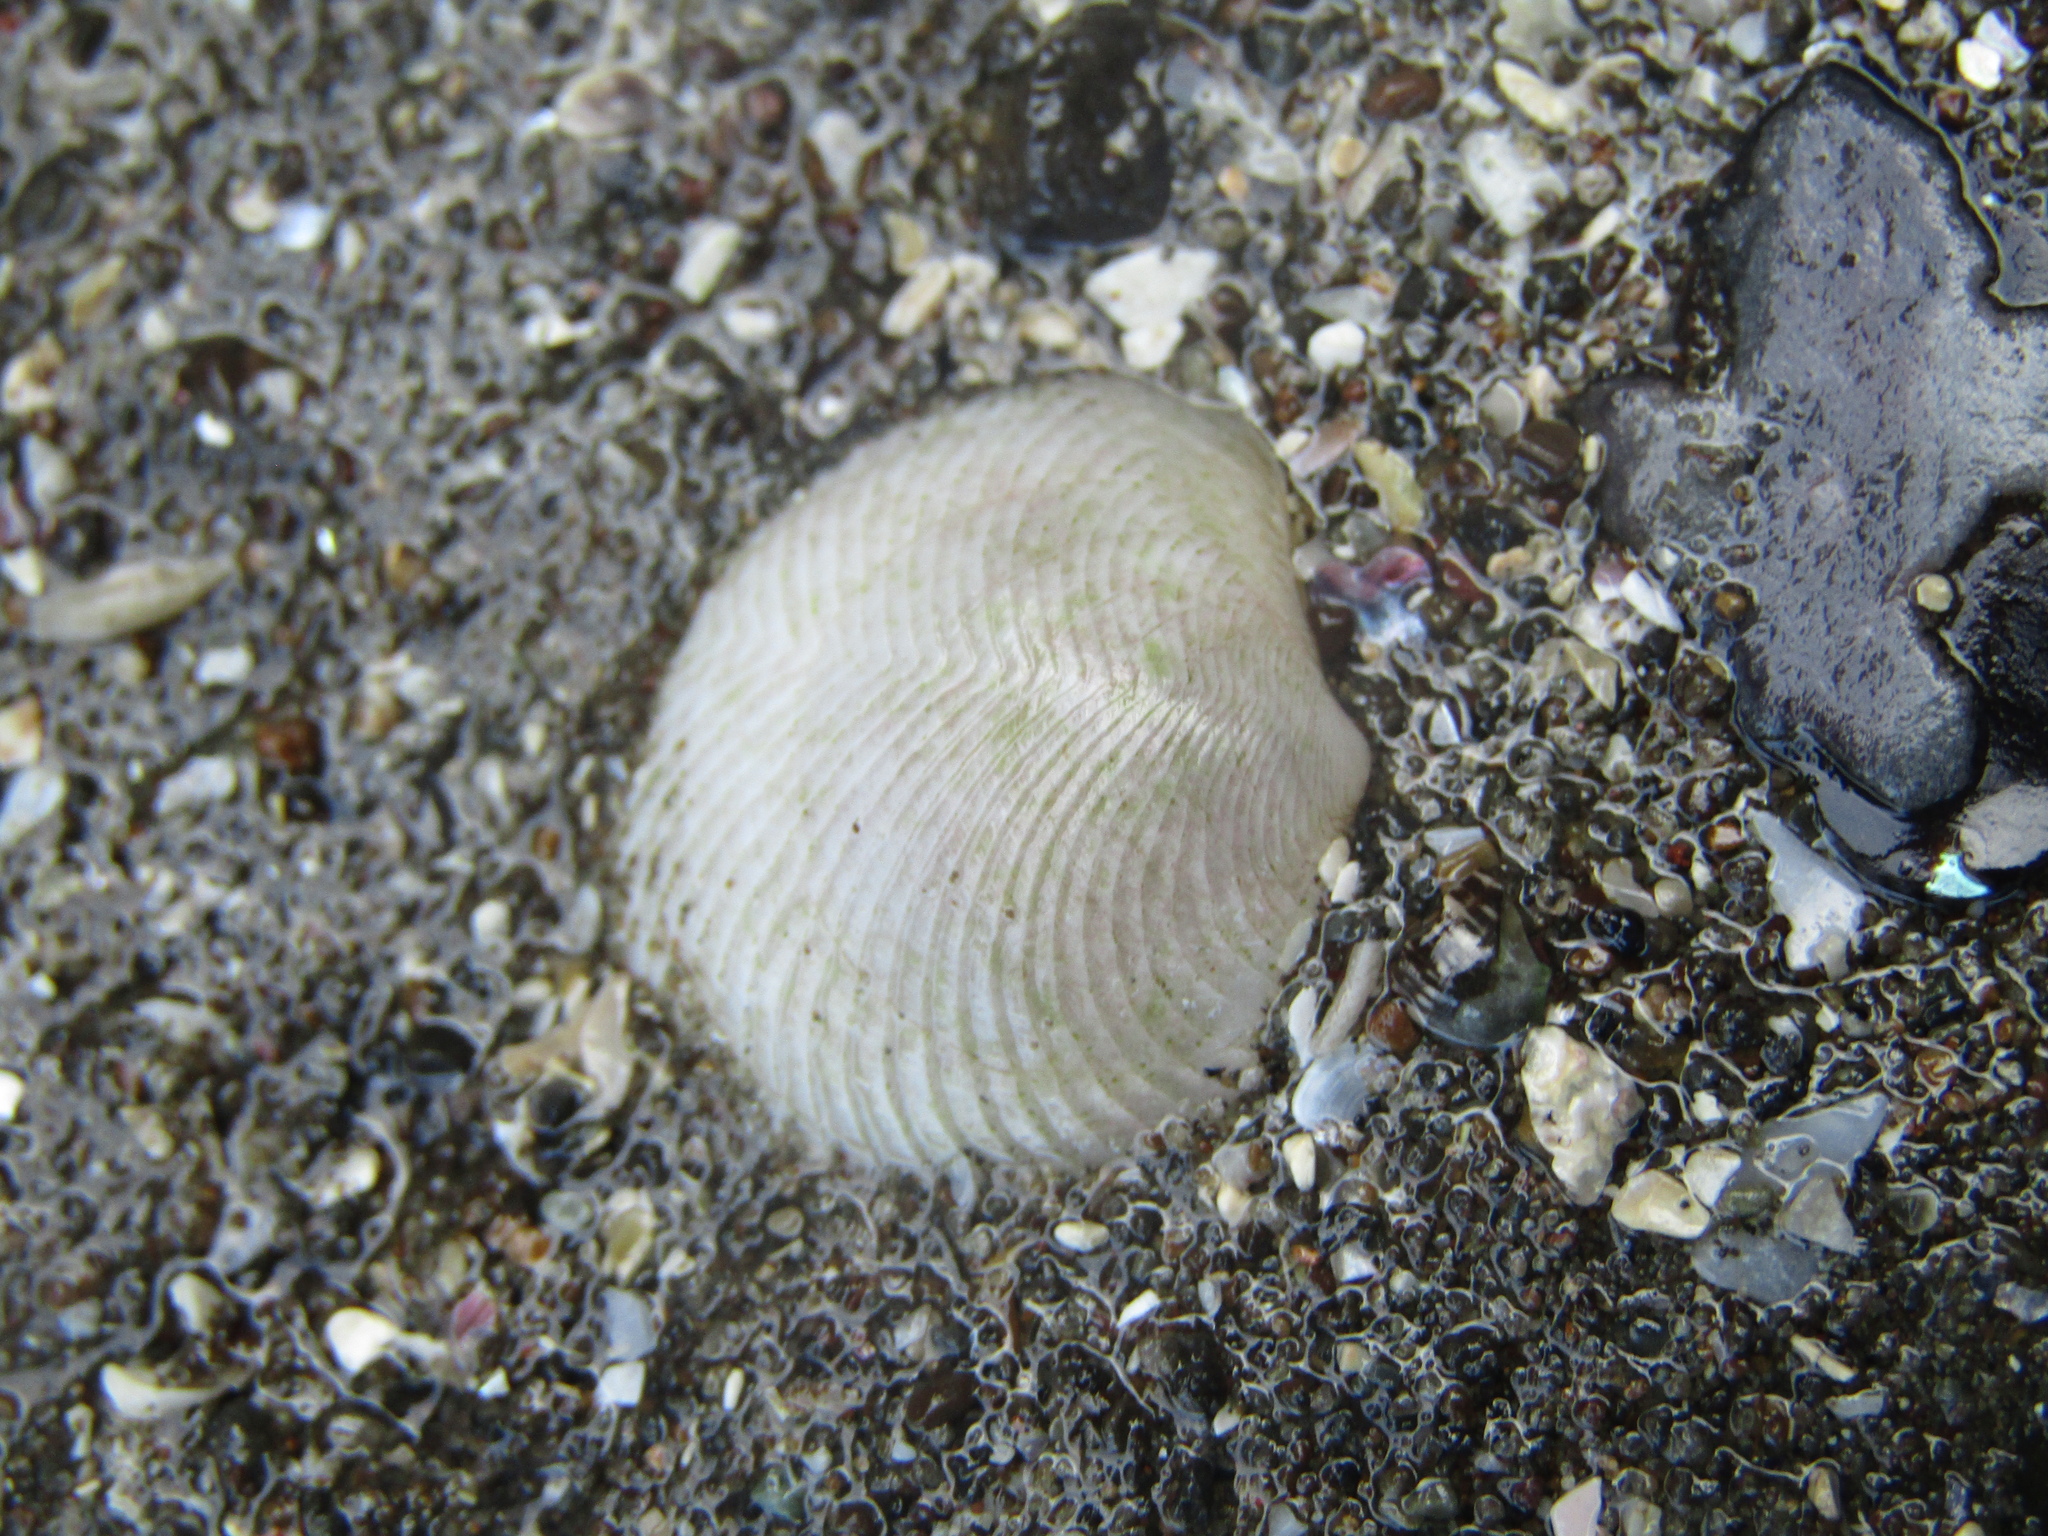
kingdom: Animalia
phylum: Mollusca
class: Bivalvia
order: Lucinida
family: Lucinidae
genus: Divalucina
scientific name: Divalucina cumingi
